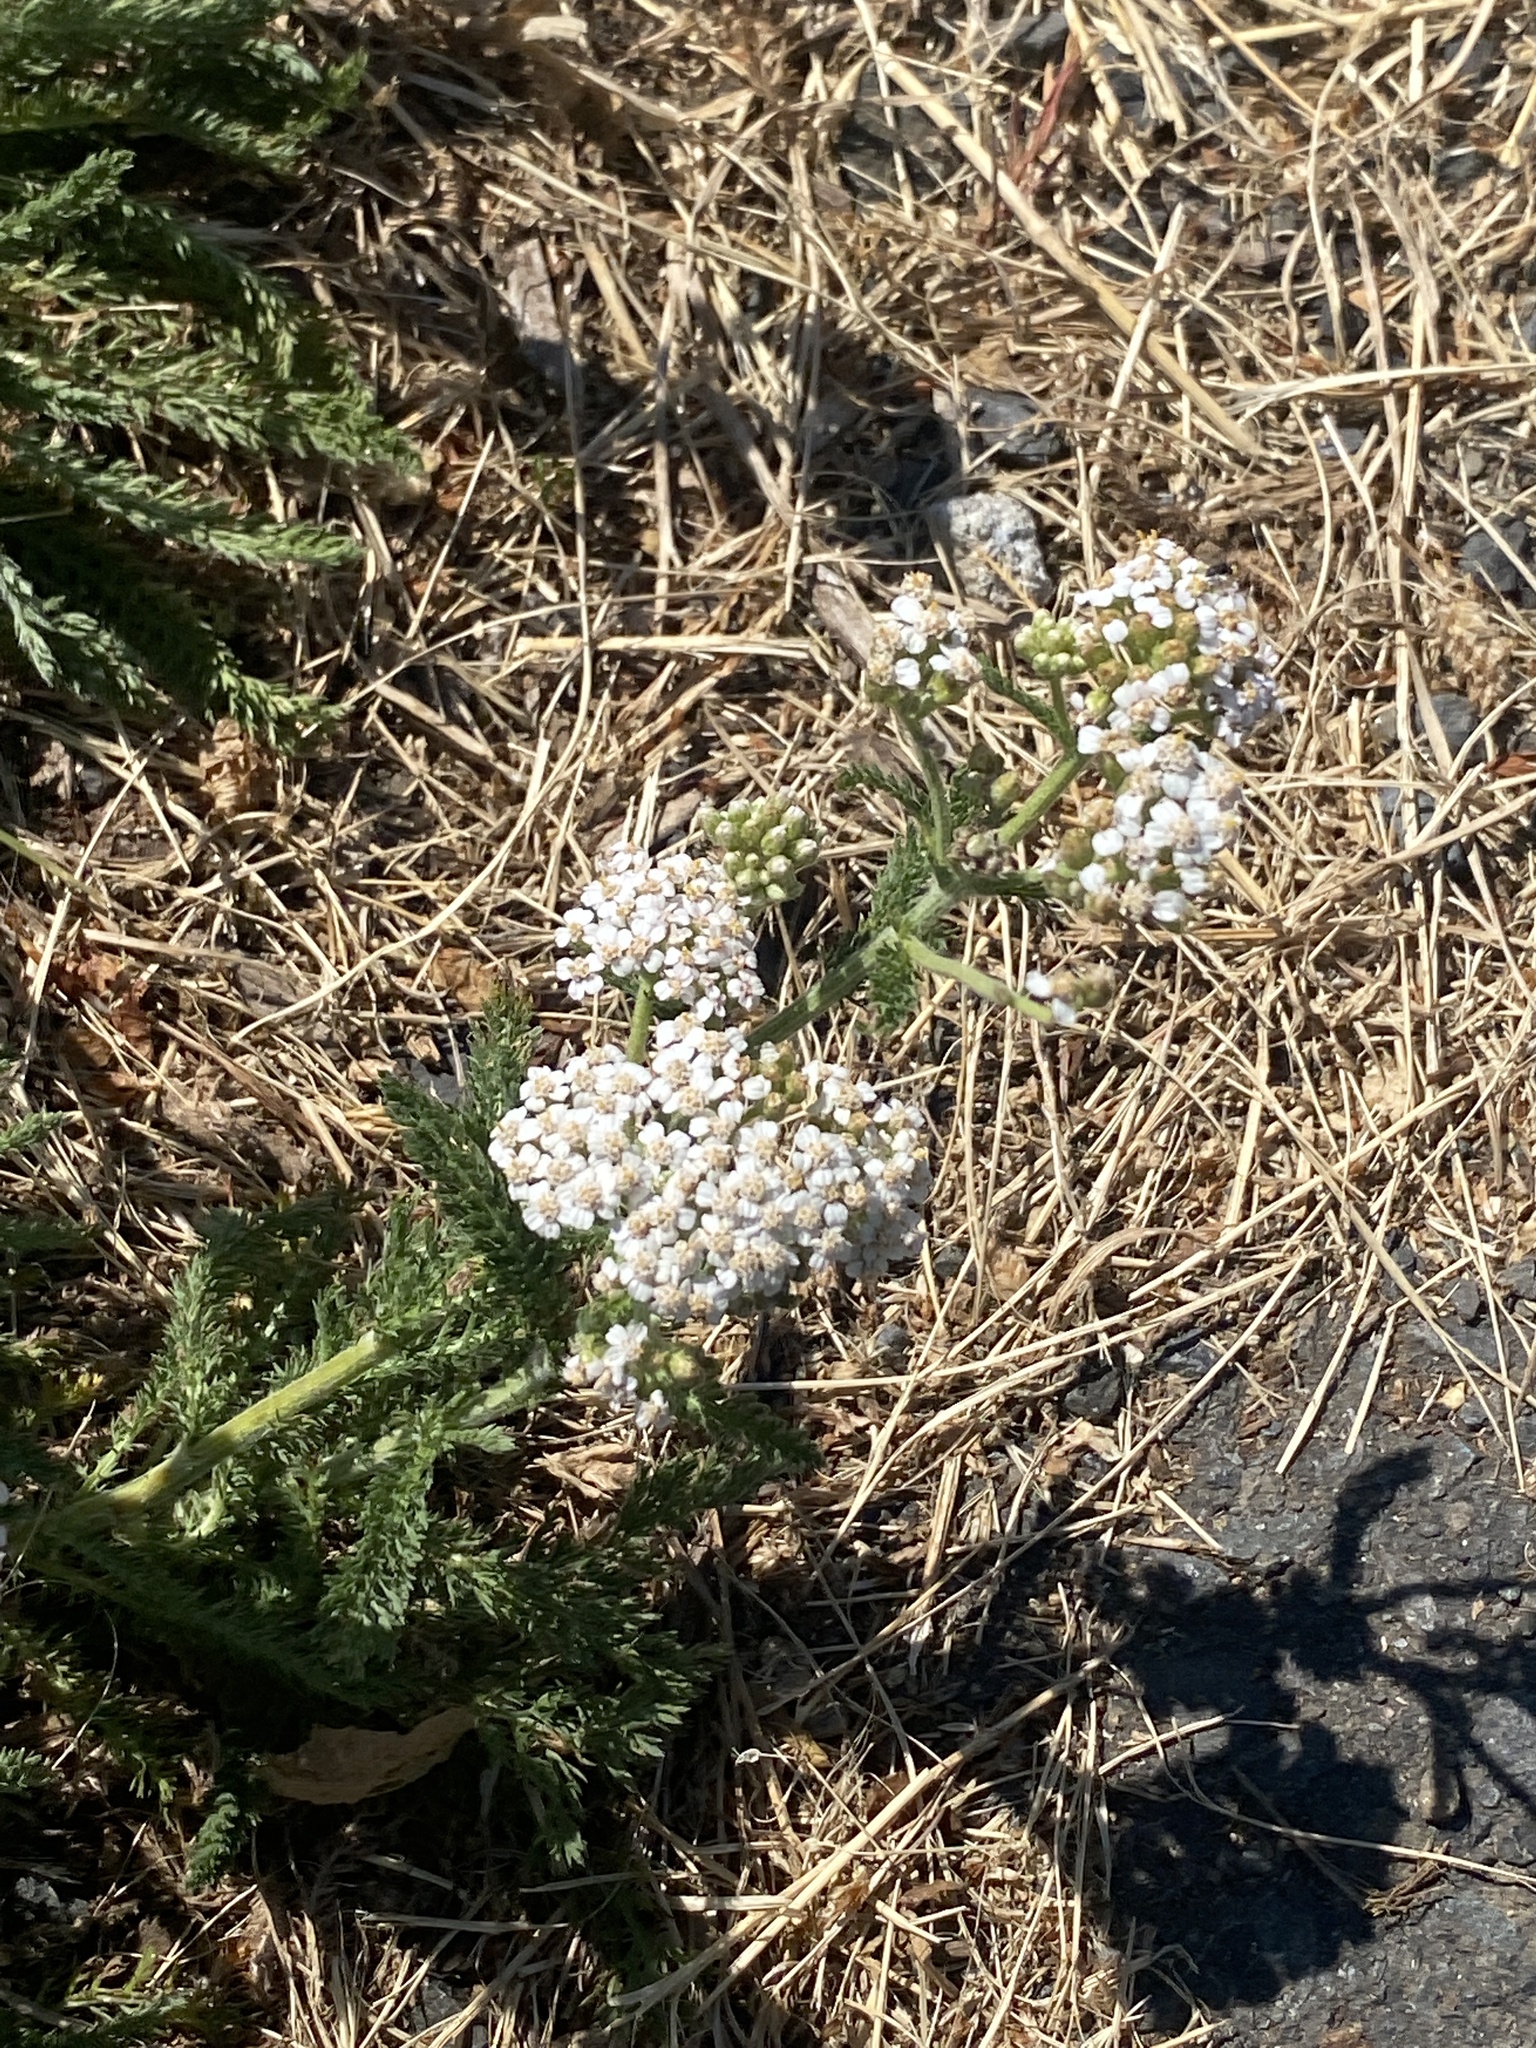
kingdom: Plantae
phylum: Tracheophyta
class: Magnoliopsida
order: Asterales
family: Asteraceae
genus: Achillea
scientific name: Achillea millefolium
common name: Yarrow
